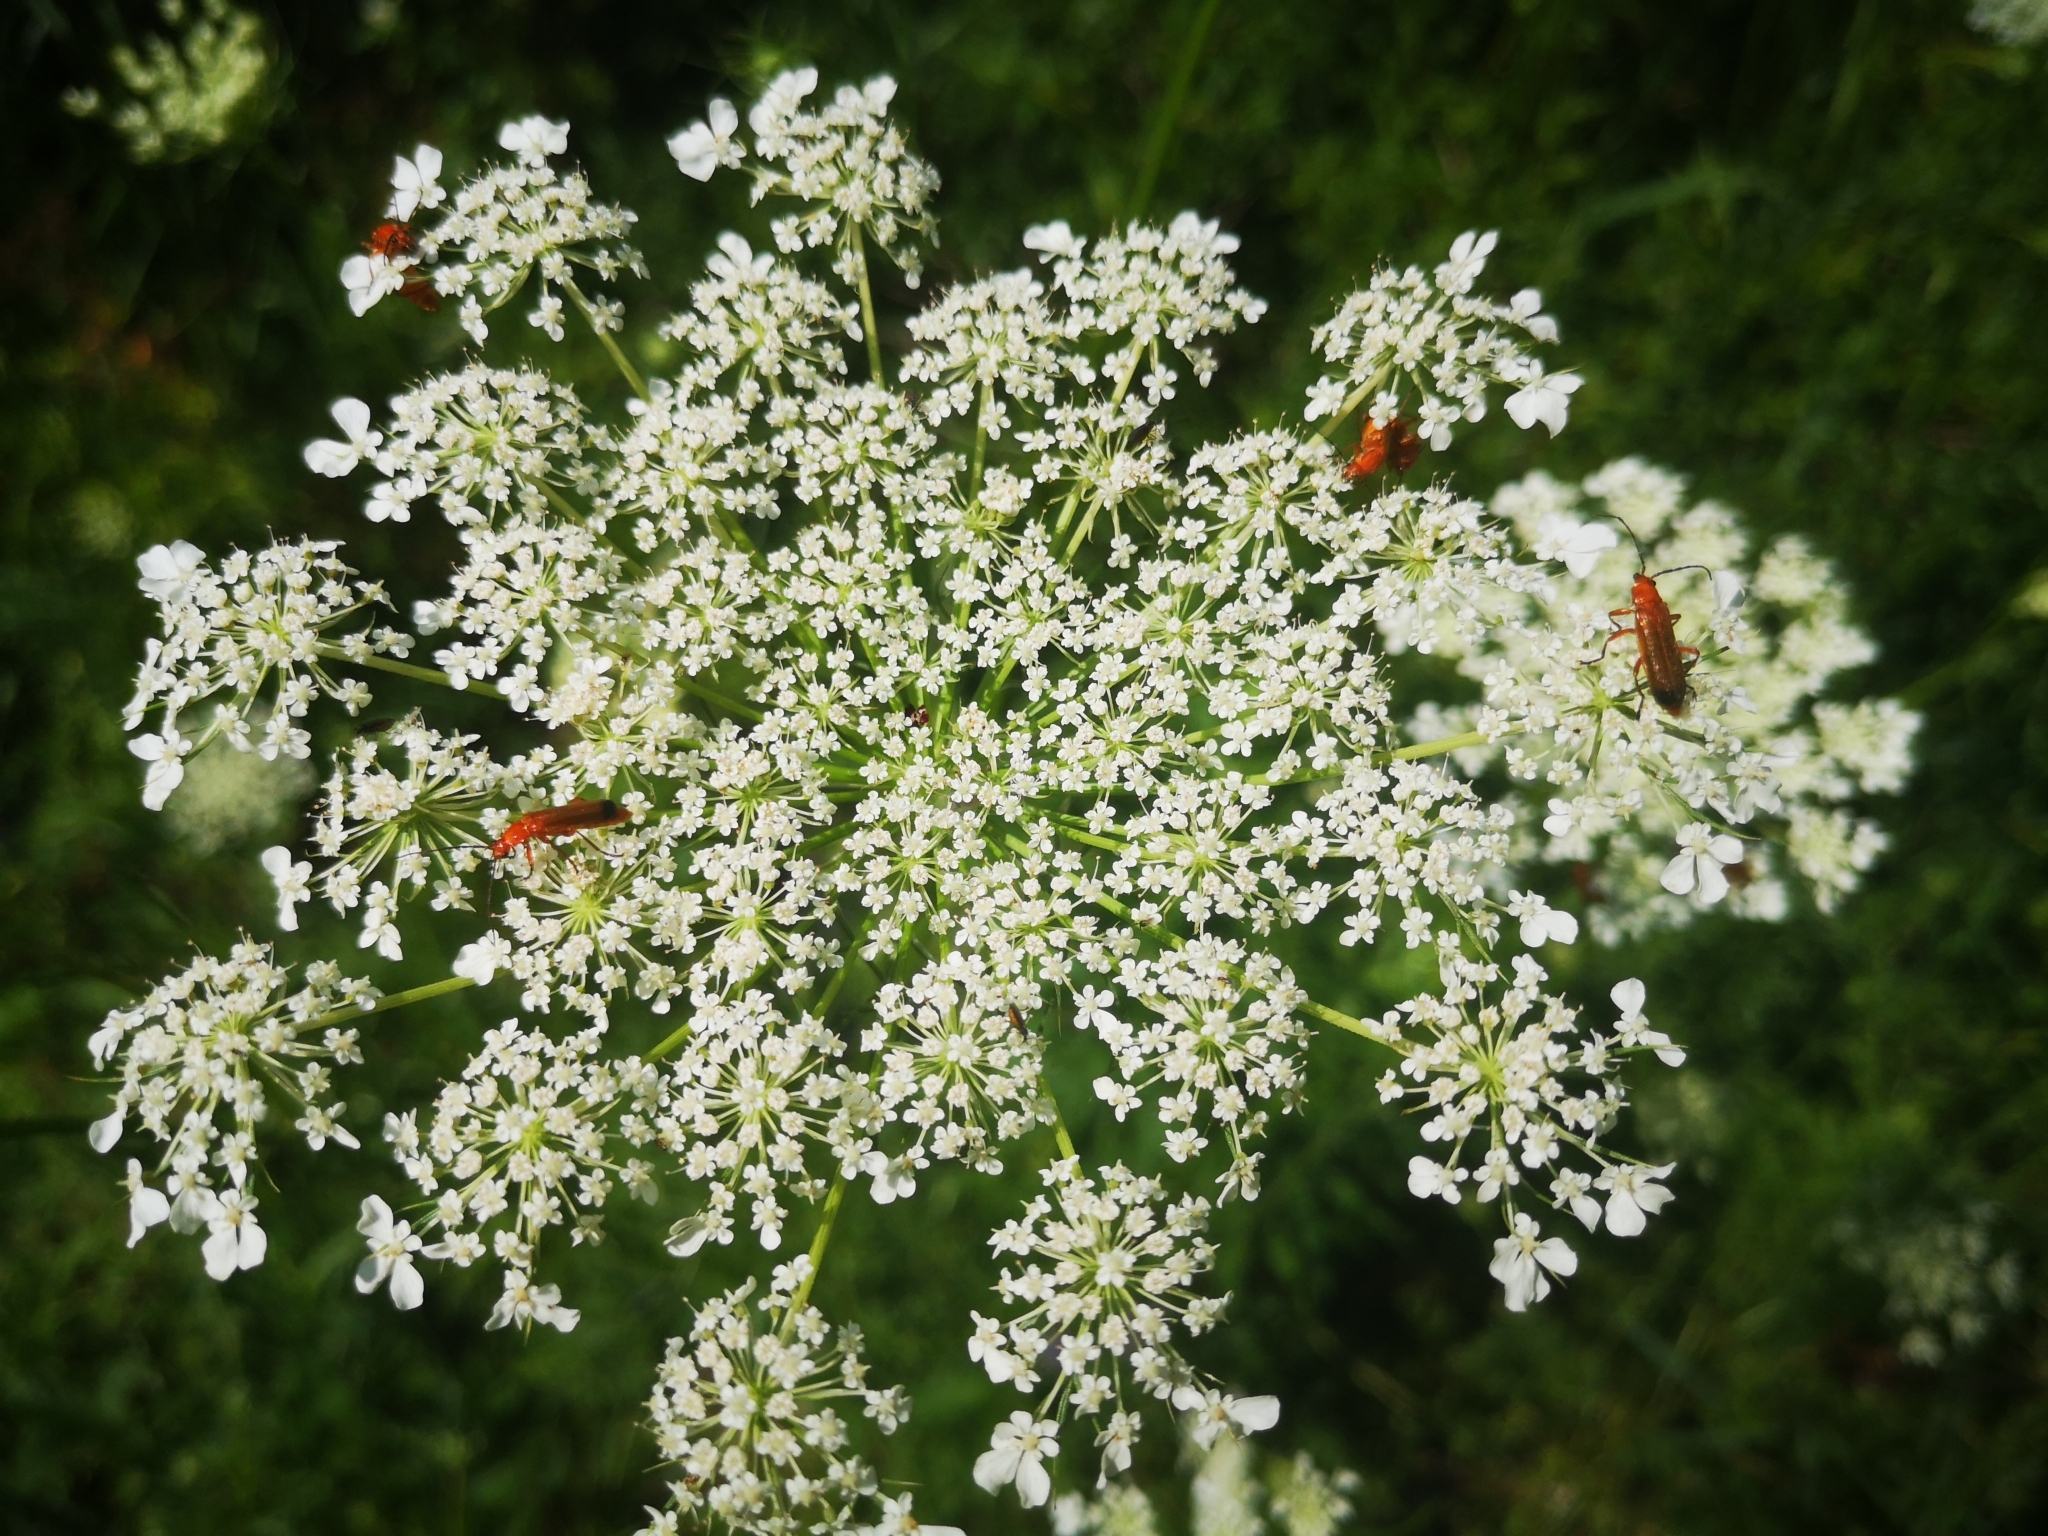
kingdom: Plantae
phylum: Tracheophyta
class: Magnoliopsida
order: Apiales
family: Apiaceae
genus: Daucus
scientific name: Daucus carota
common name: Wild carrot
